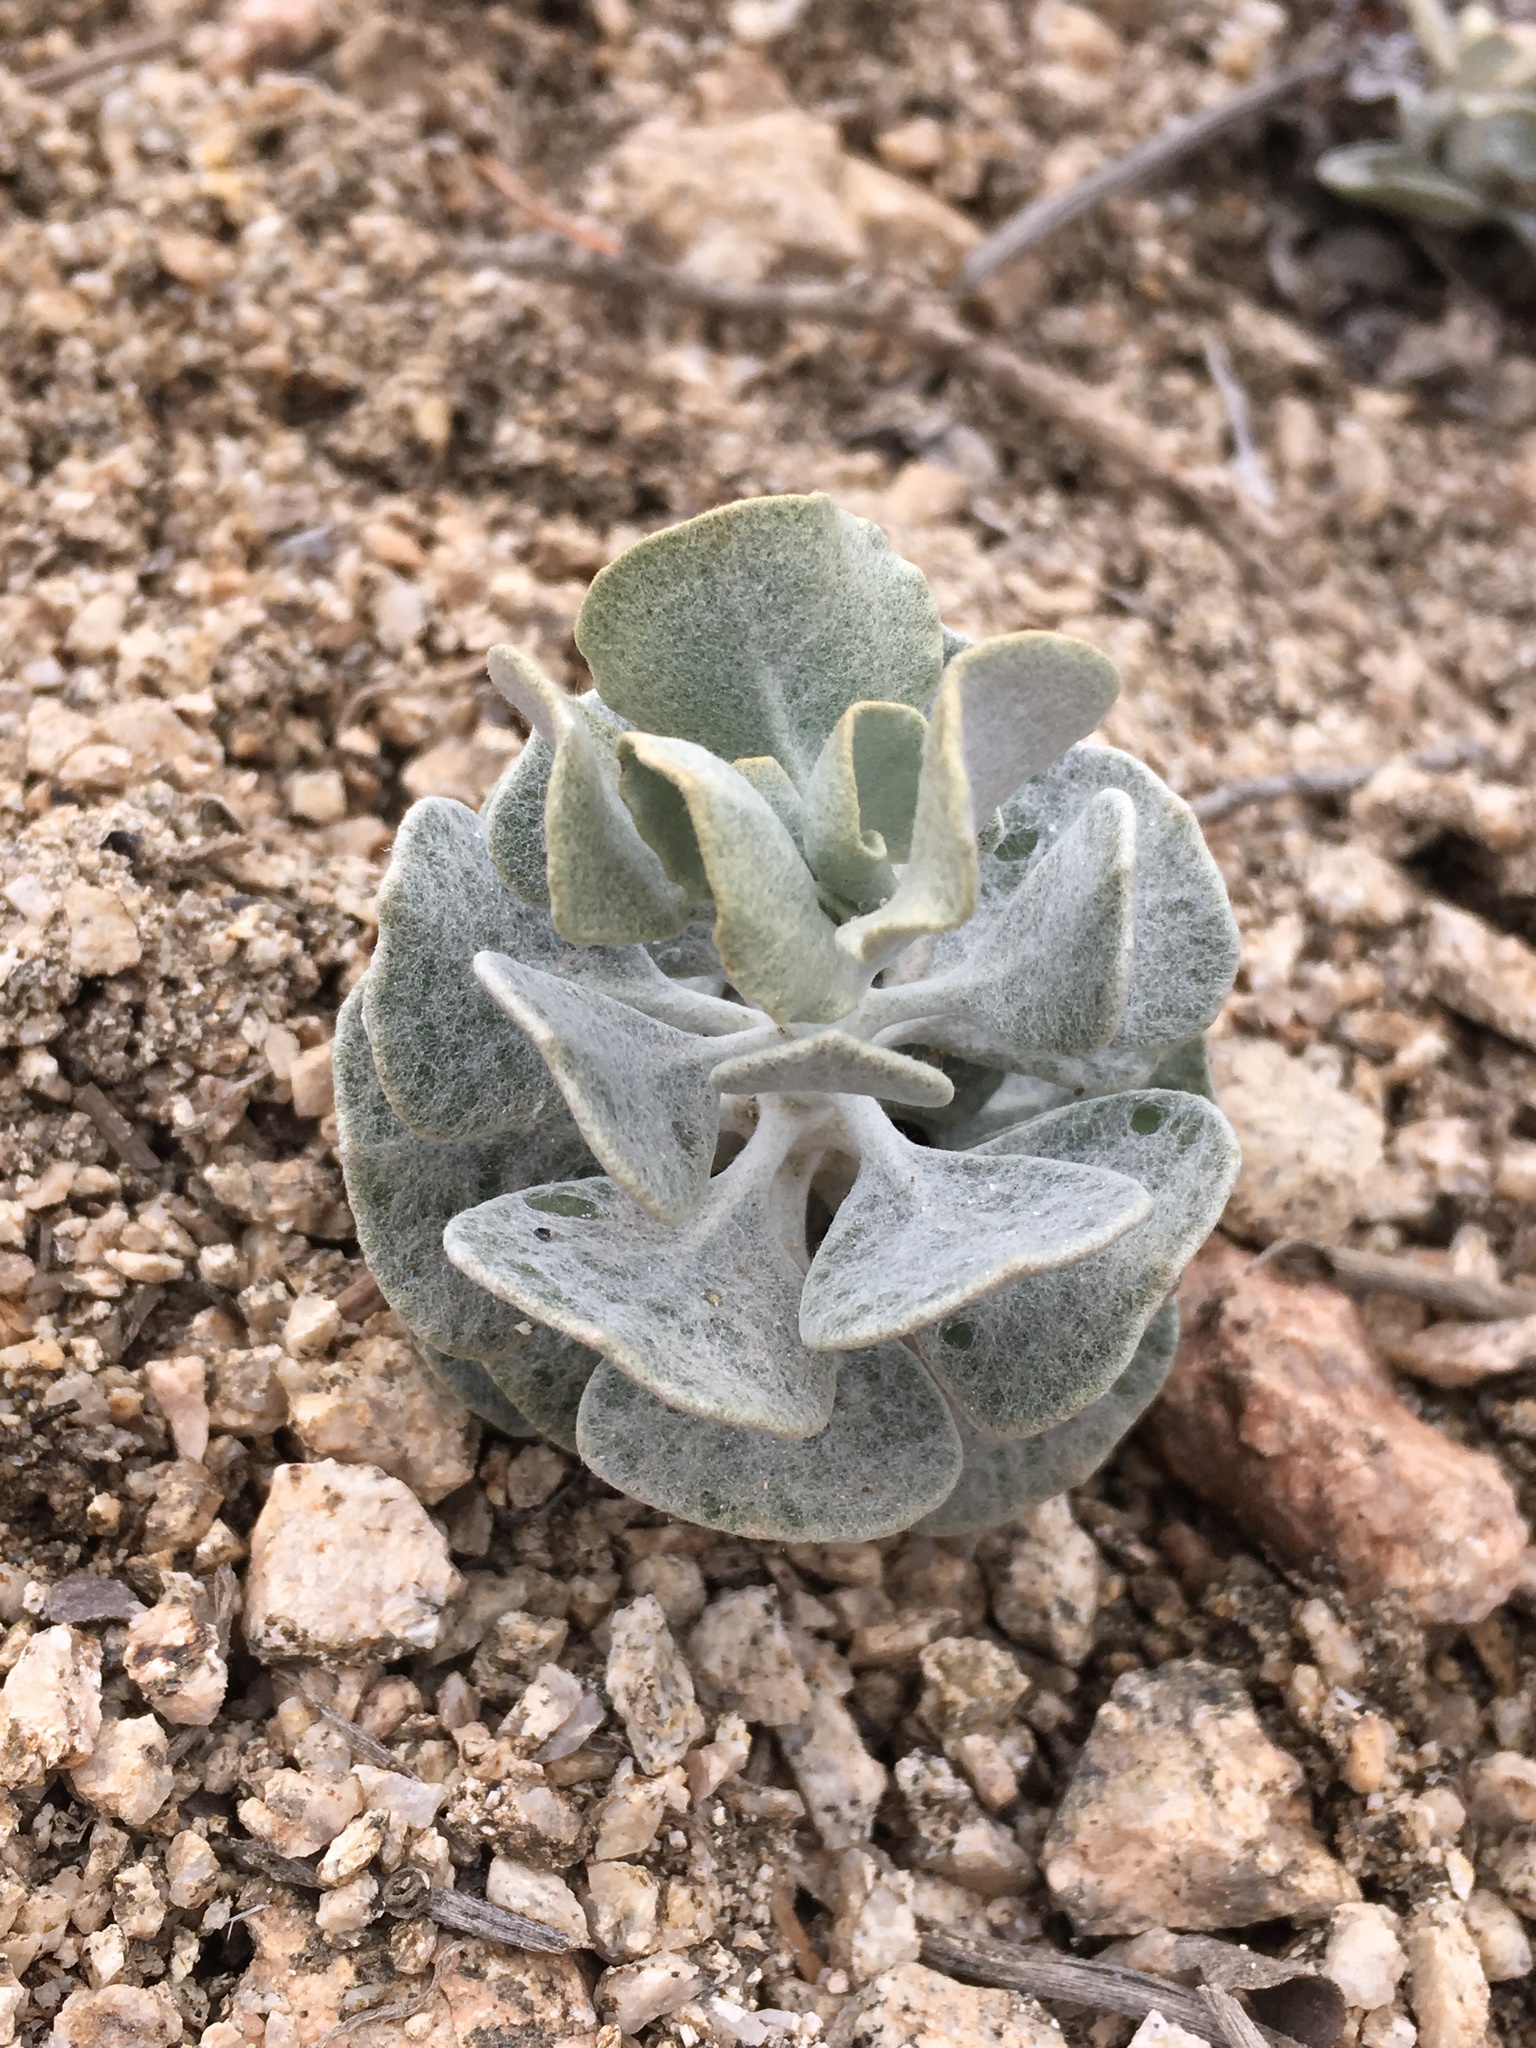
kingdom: Plantae
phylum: Tracheophyta
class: Magnoliopsida
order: Caryophyllales
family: Polygonaceae
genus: Eriogonum
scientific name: Eriogonum saxatile
